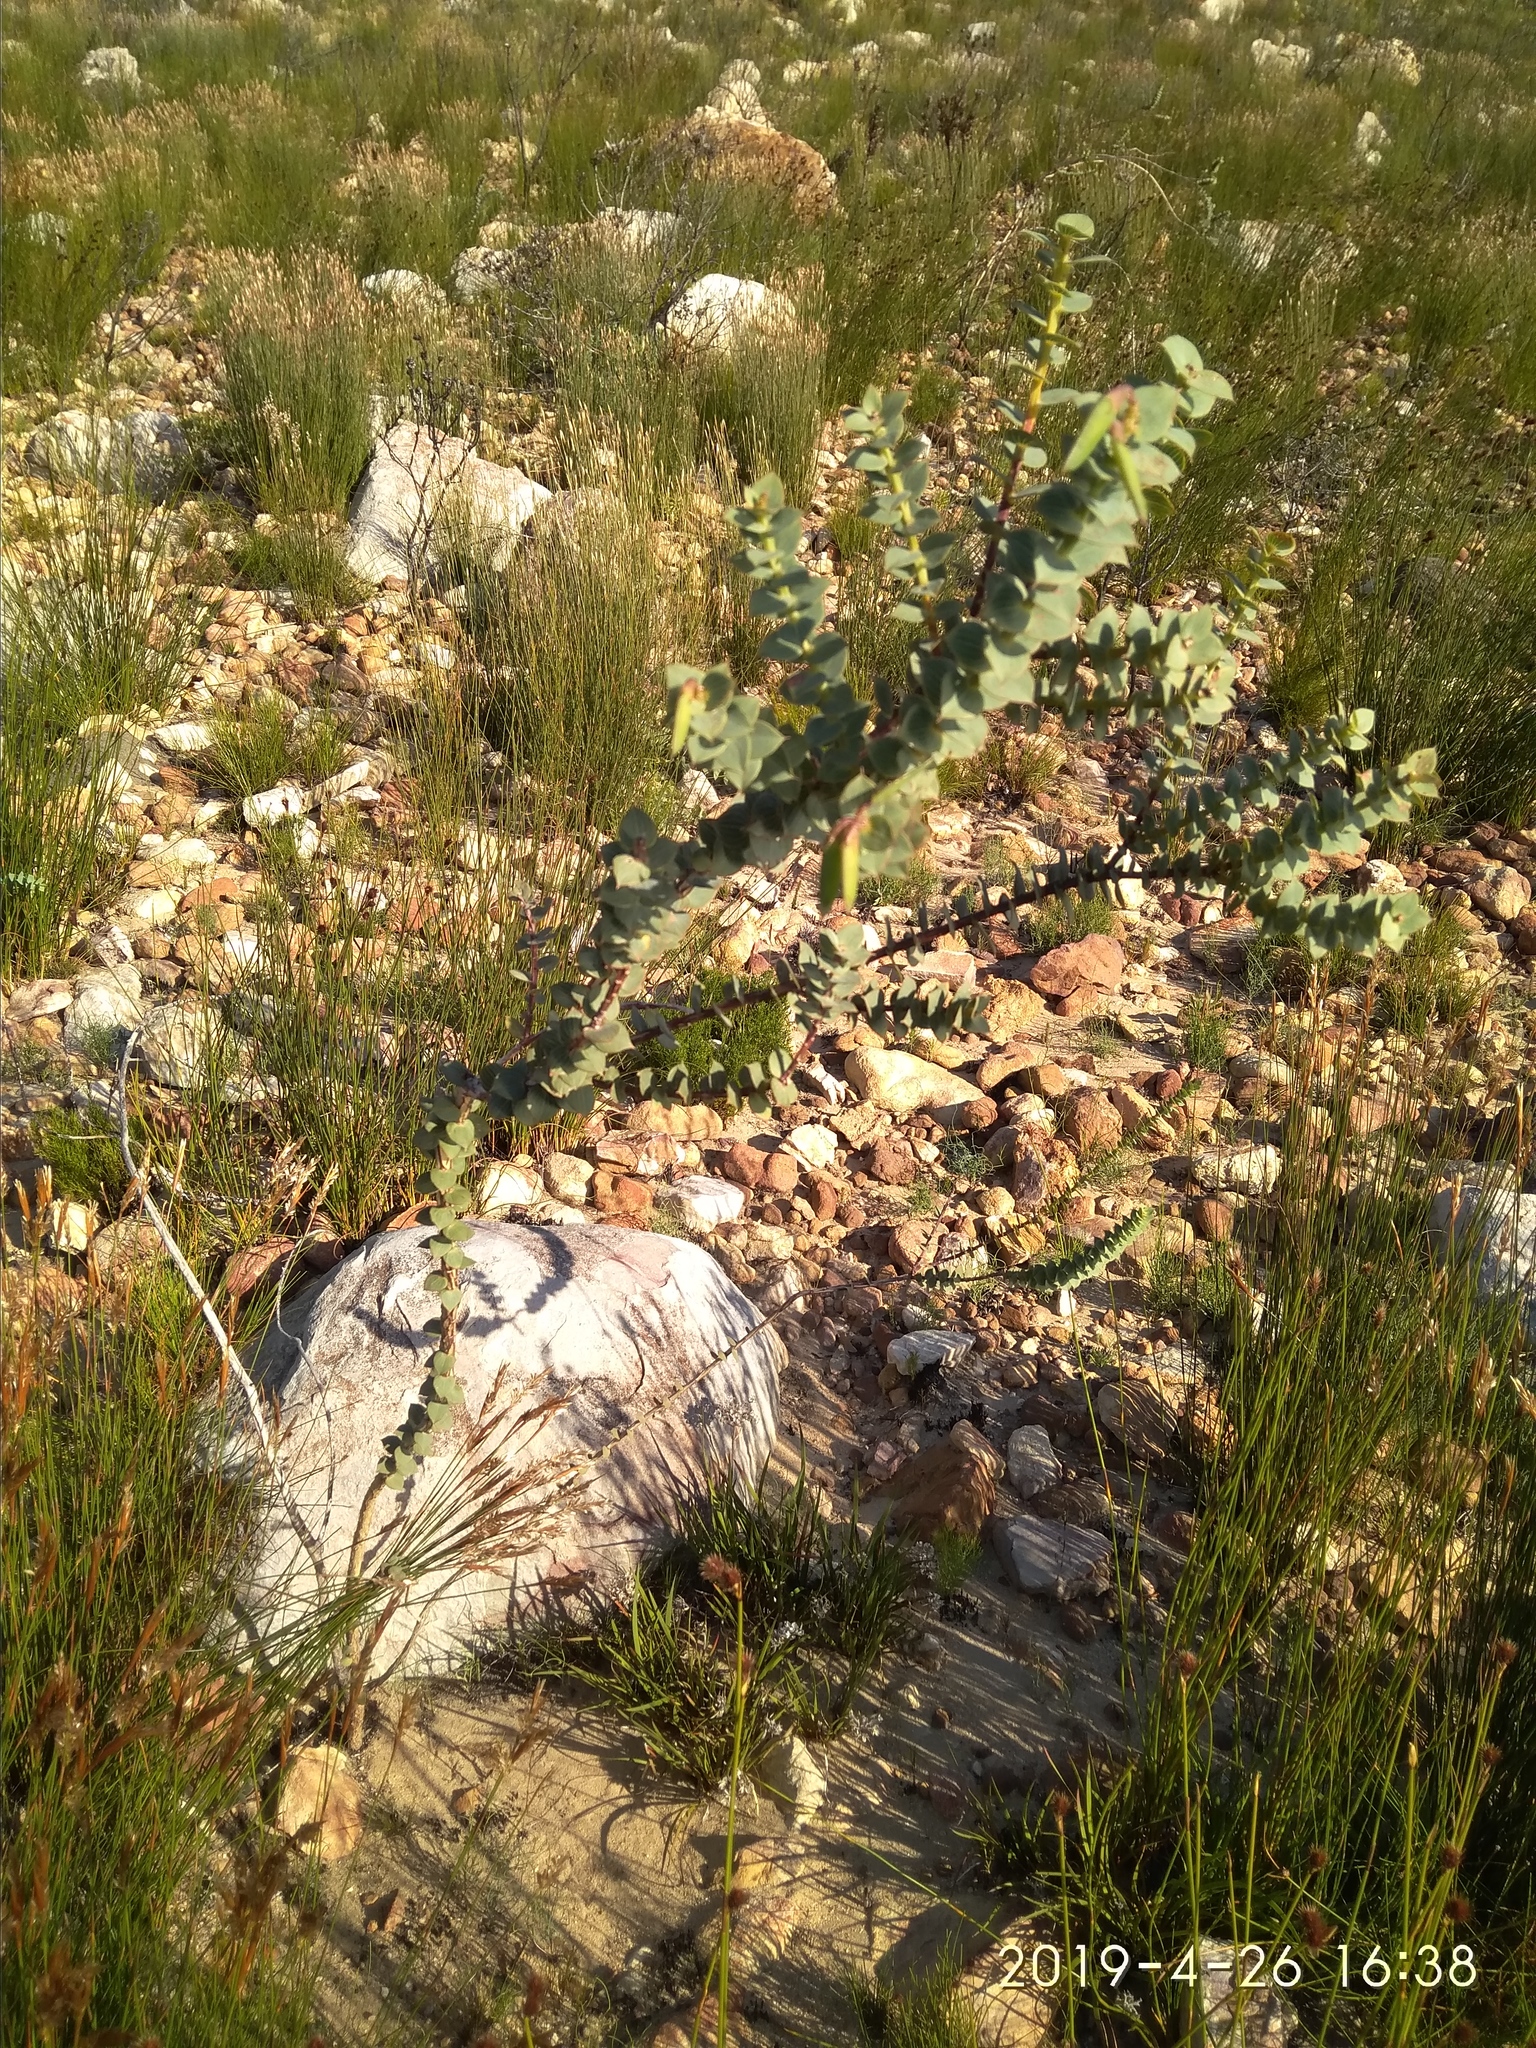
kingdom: Plantae
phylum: Tracheophyta
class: Magnoliopsida
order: Fabales
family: Fabaceae
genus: Aspalathus
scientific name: Aspalathus crenata
